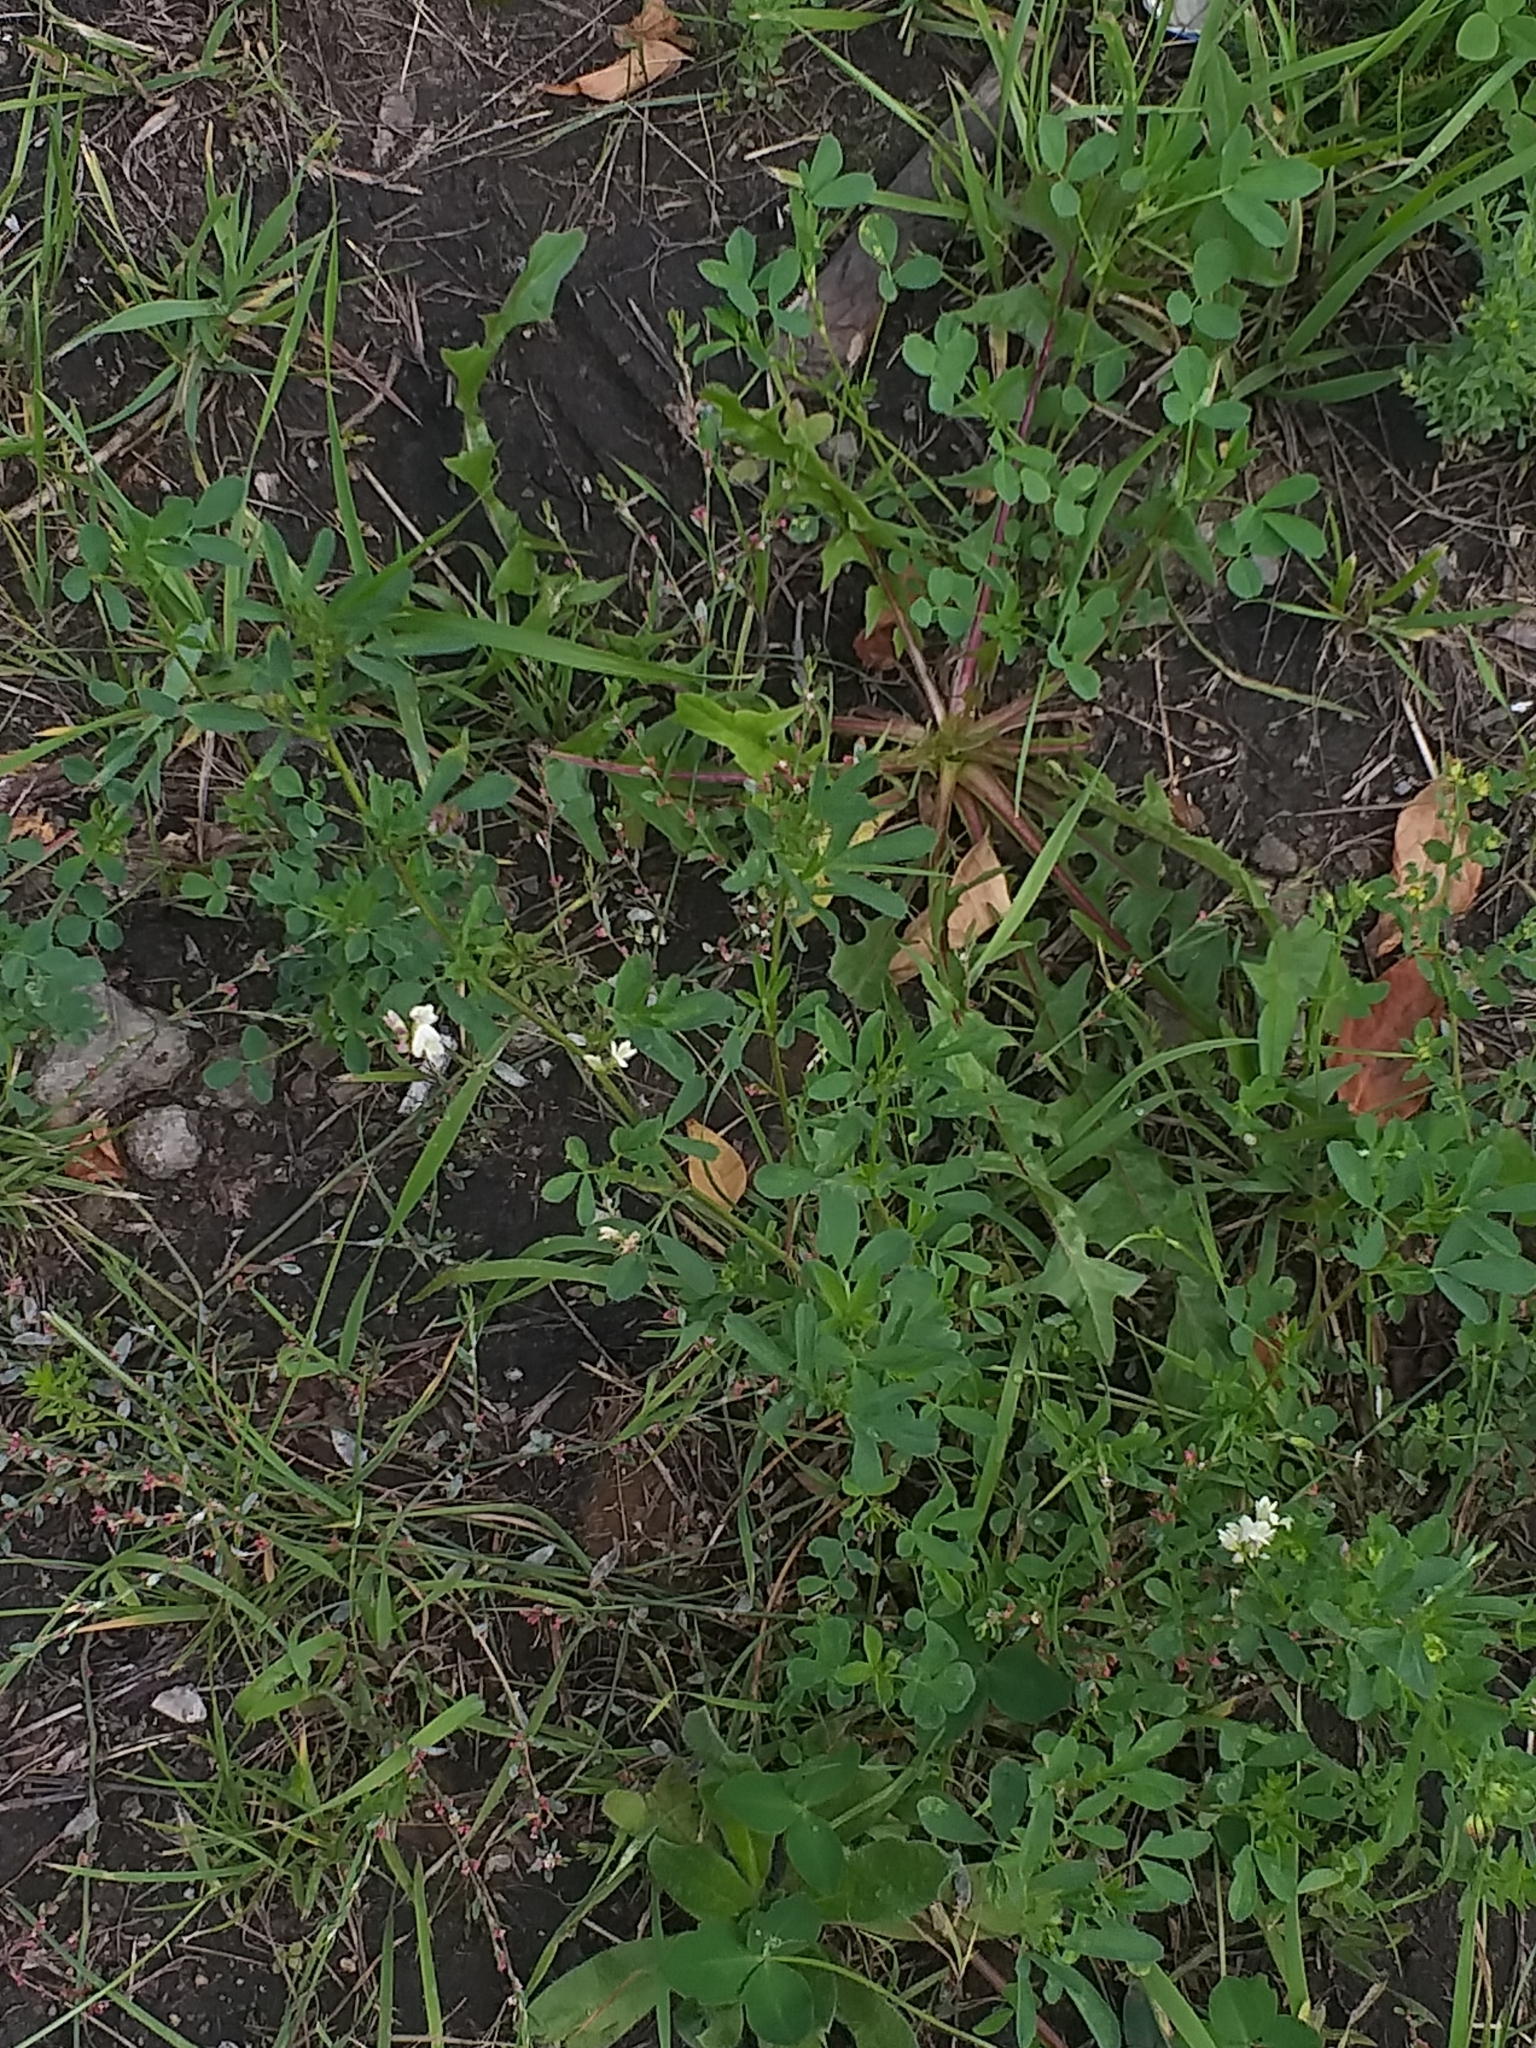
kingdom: Plantae
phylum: Tracheophyta
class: Magnoliopsida
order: Fabales
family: Fabaceae
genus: Medicago
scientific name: Medicago varia
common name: Sand lucerne
